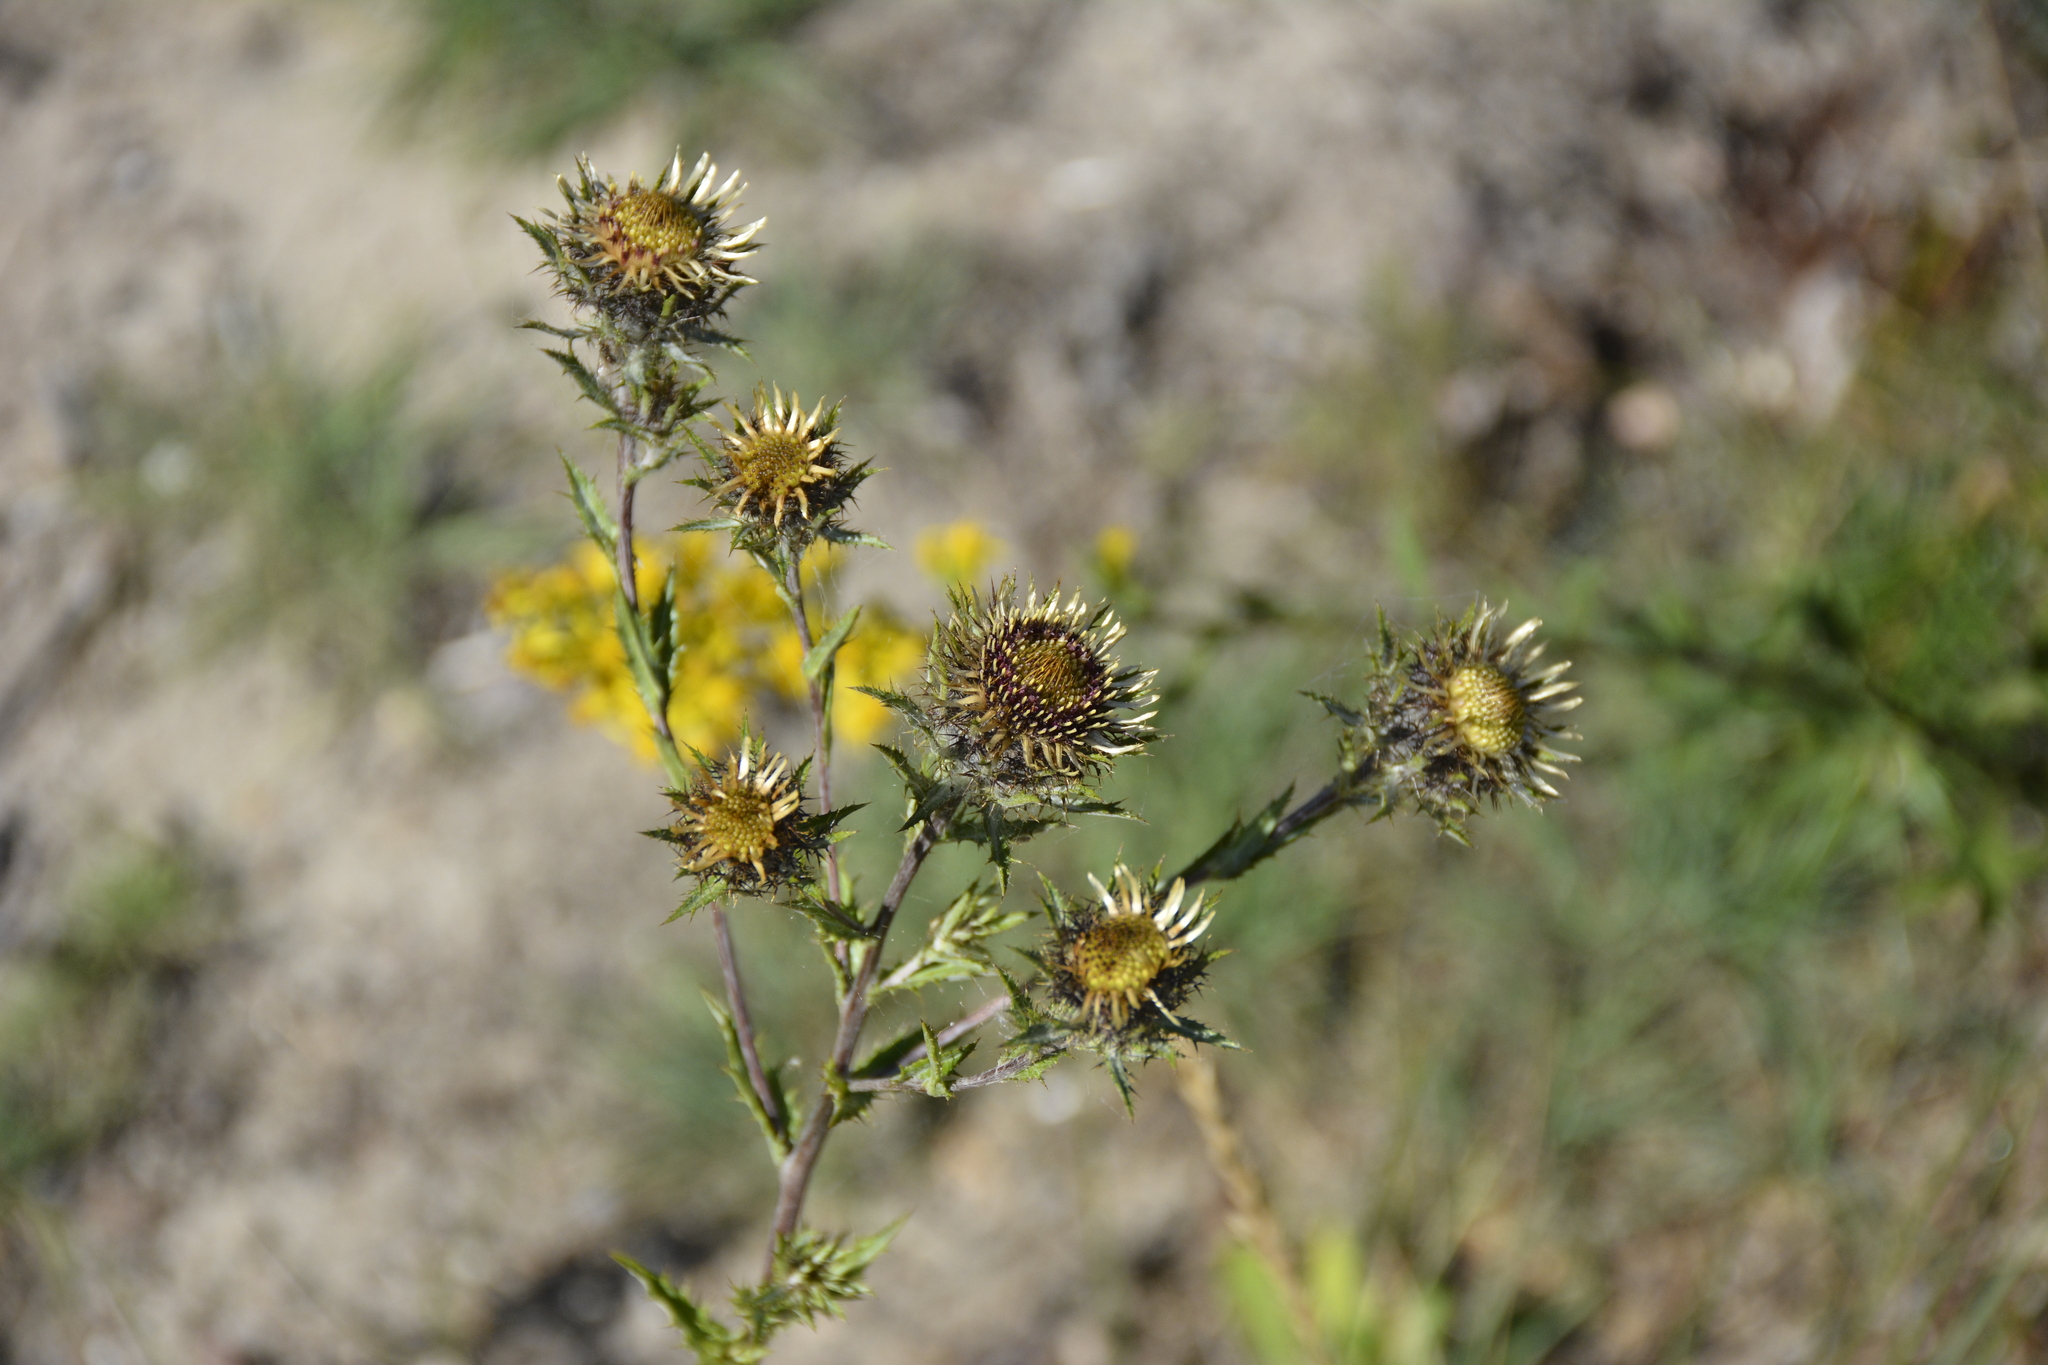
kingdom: Plantae
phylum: Tracheophyta
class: Magnoliopsida
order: Asterales
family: Asteraceae
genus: Carlina
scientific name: Carlina biebersteinii
